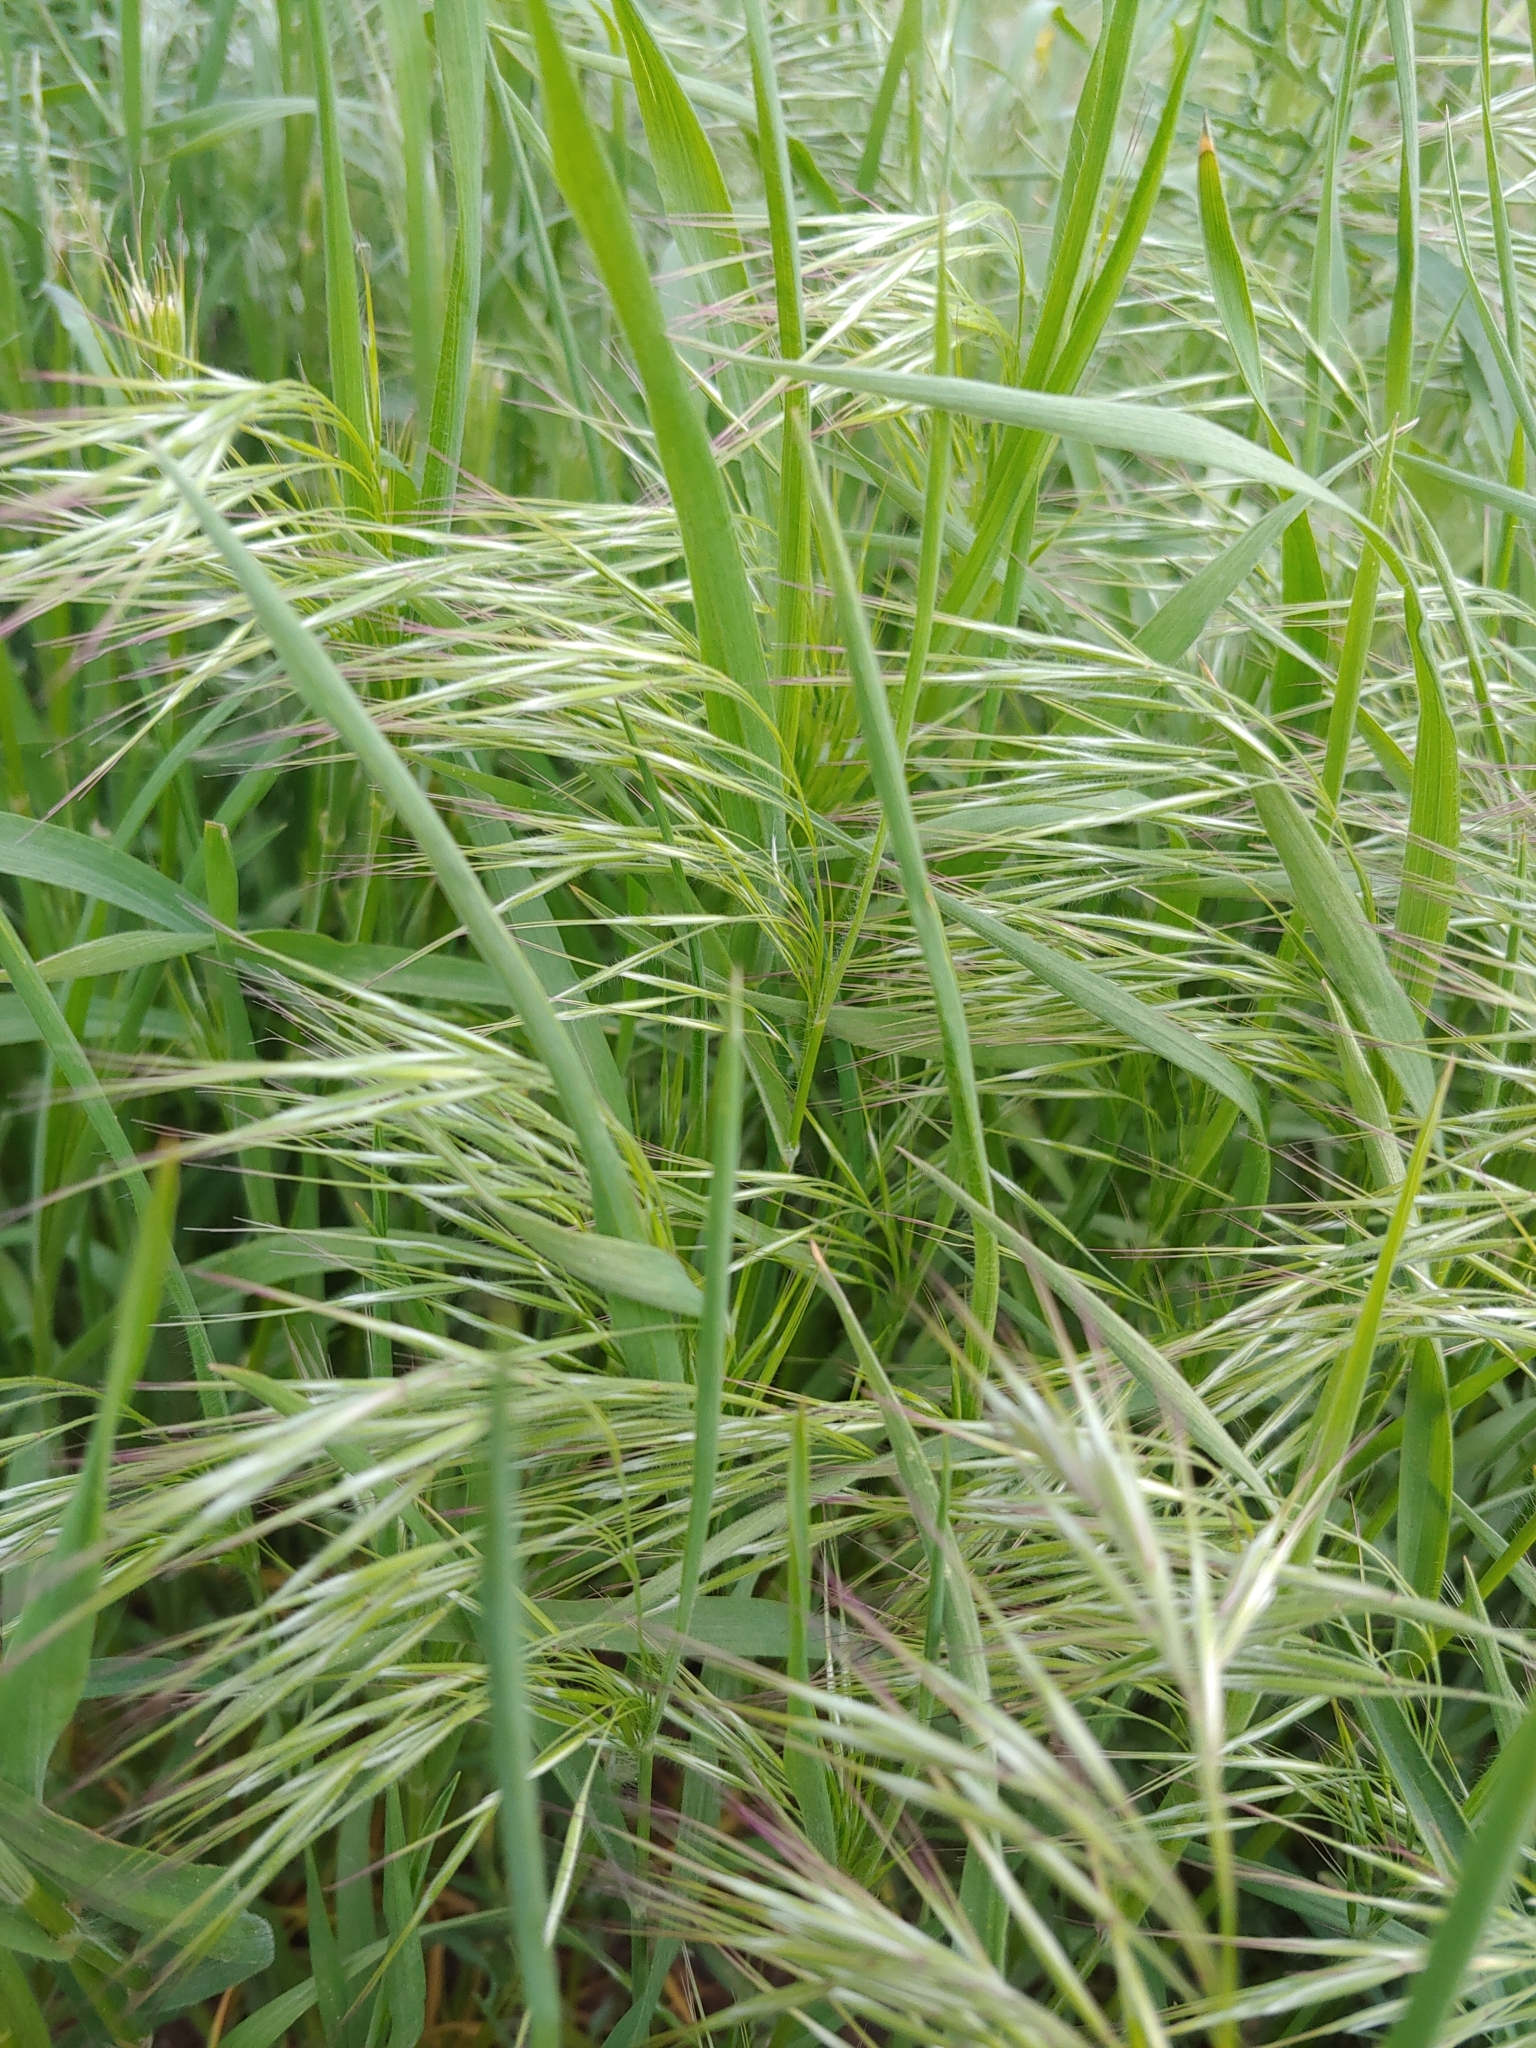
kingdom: Plantae
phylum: Tracheophyta
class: Liliopsida
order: Poales
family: Poaceae
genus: Bromus
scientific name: Bromus tectorum
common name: Cheatgrass
